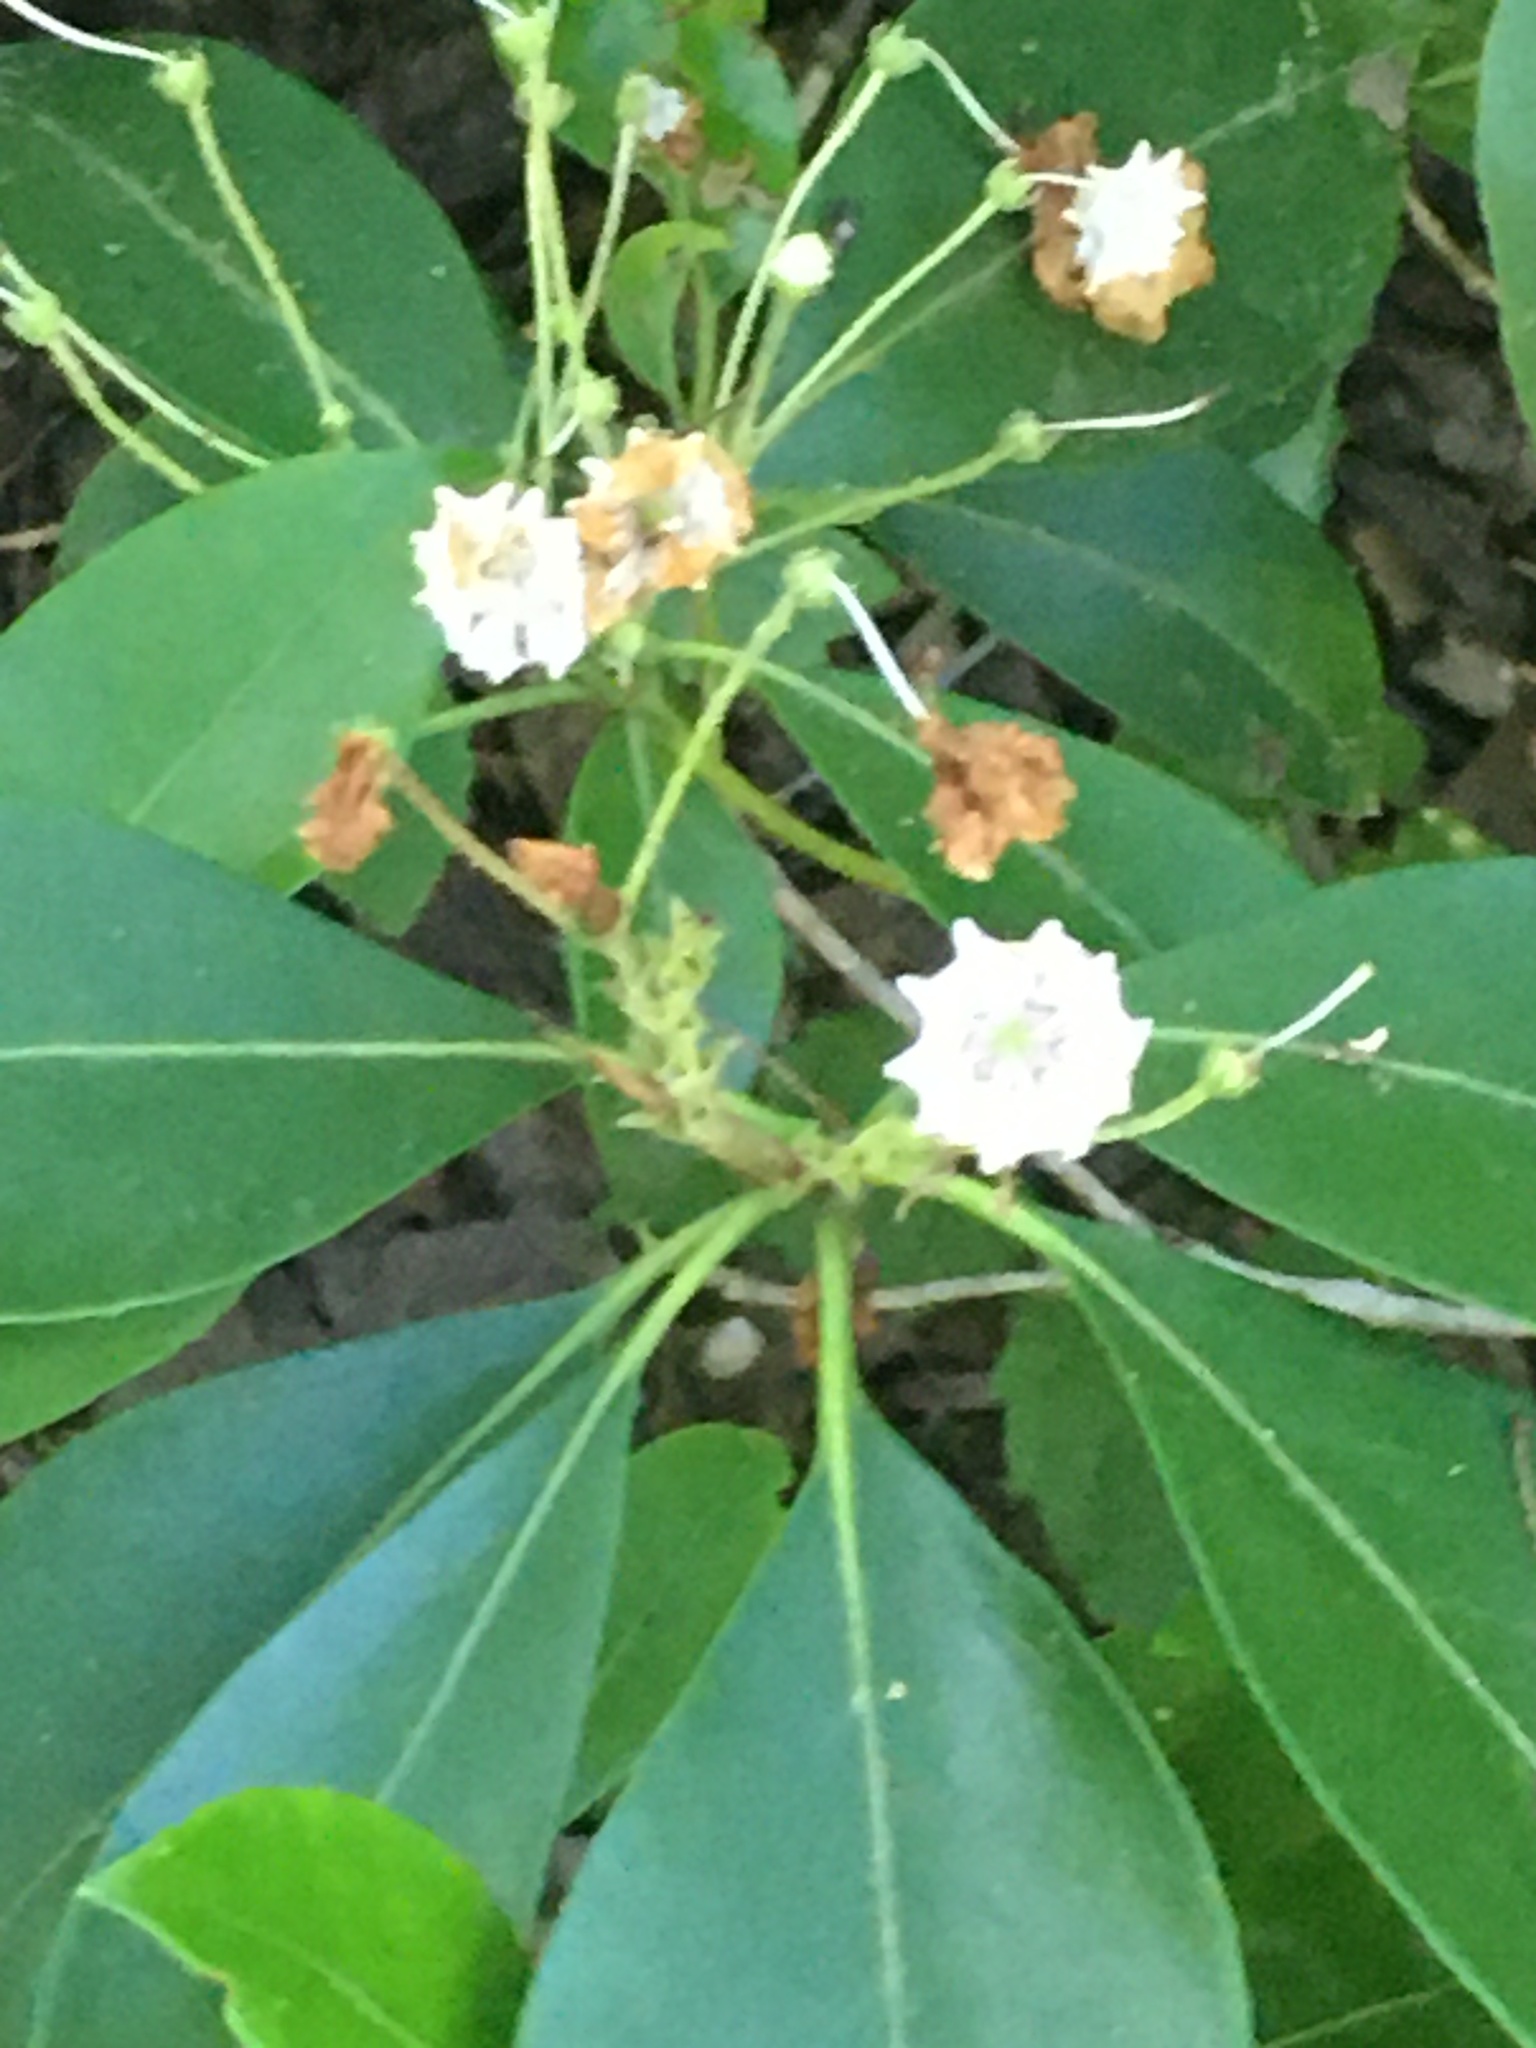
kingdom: Plantae
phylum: Tracheophyta
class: Magnoliopsida
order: Ericales
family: Ericaceae
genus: Kalmia
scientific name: Kalmia latifolia
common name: Mountain-laurel
